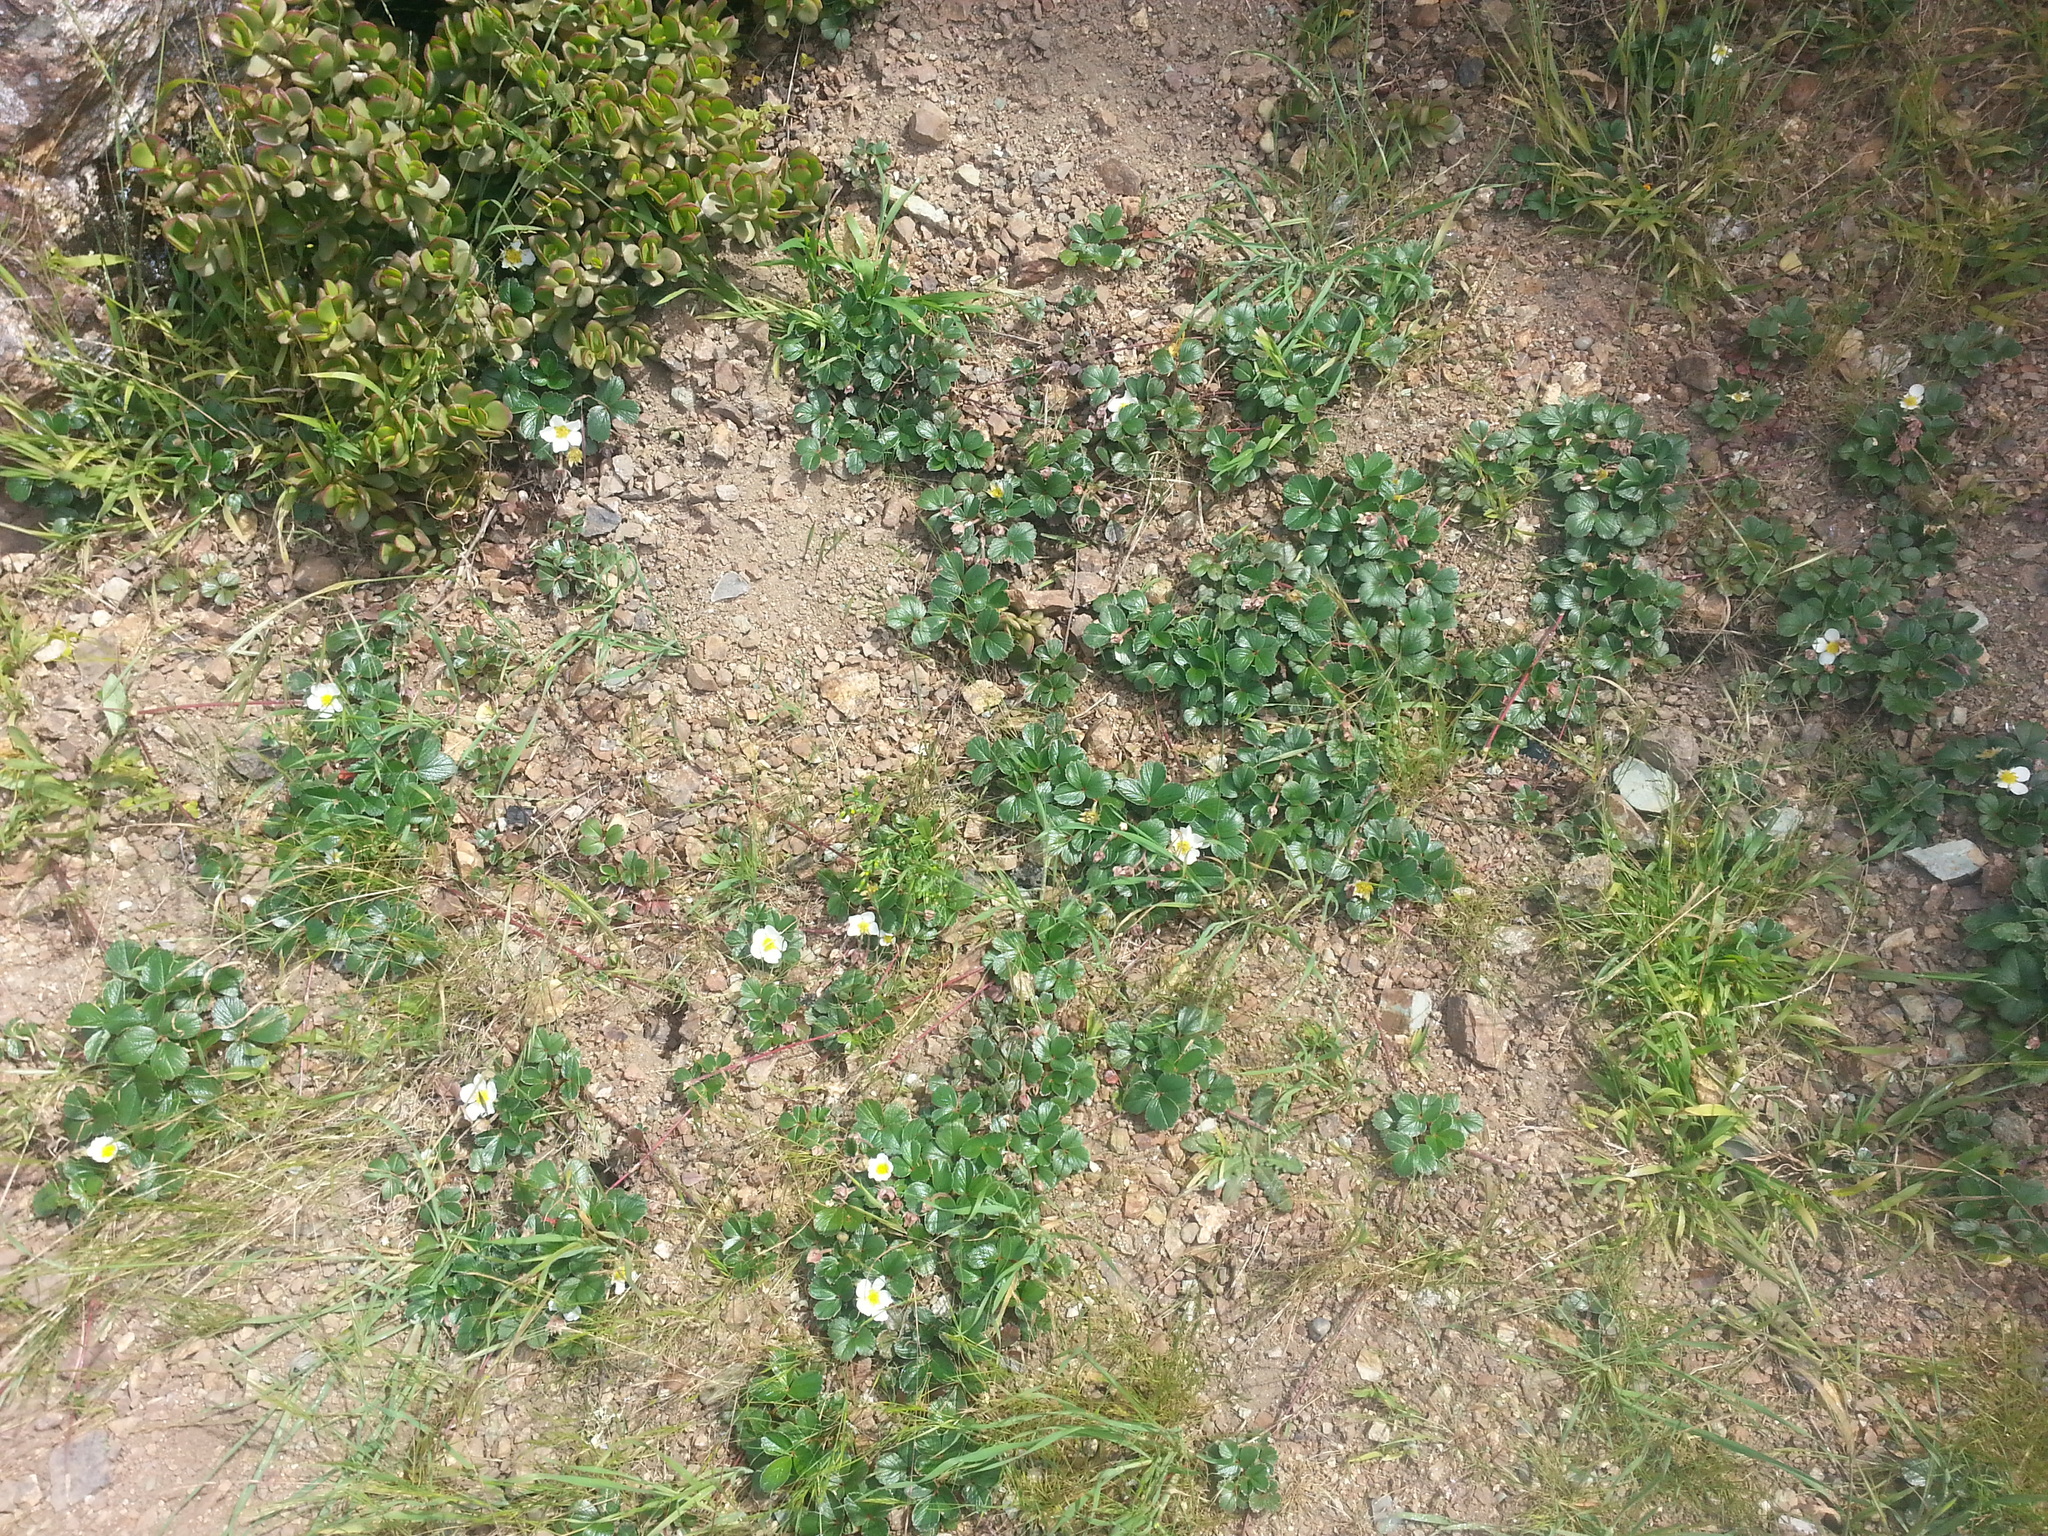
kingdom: Plantae
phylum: Tracheophyta
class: Magnoliopsida
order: Rosales
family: Rosaceae
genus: Fragaria
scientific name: Fragaria chiloensis
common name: Beach strawberry
